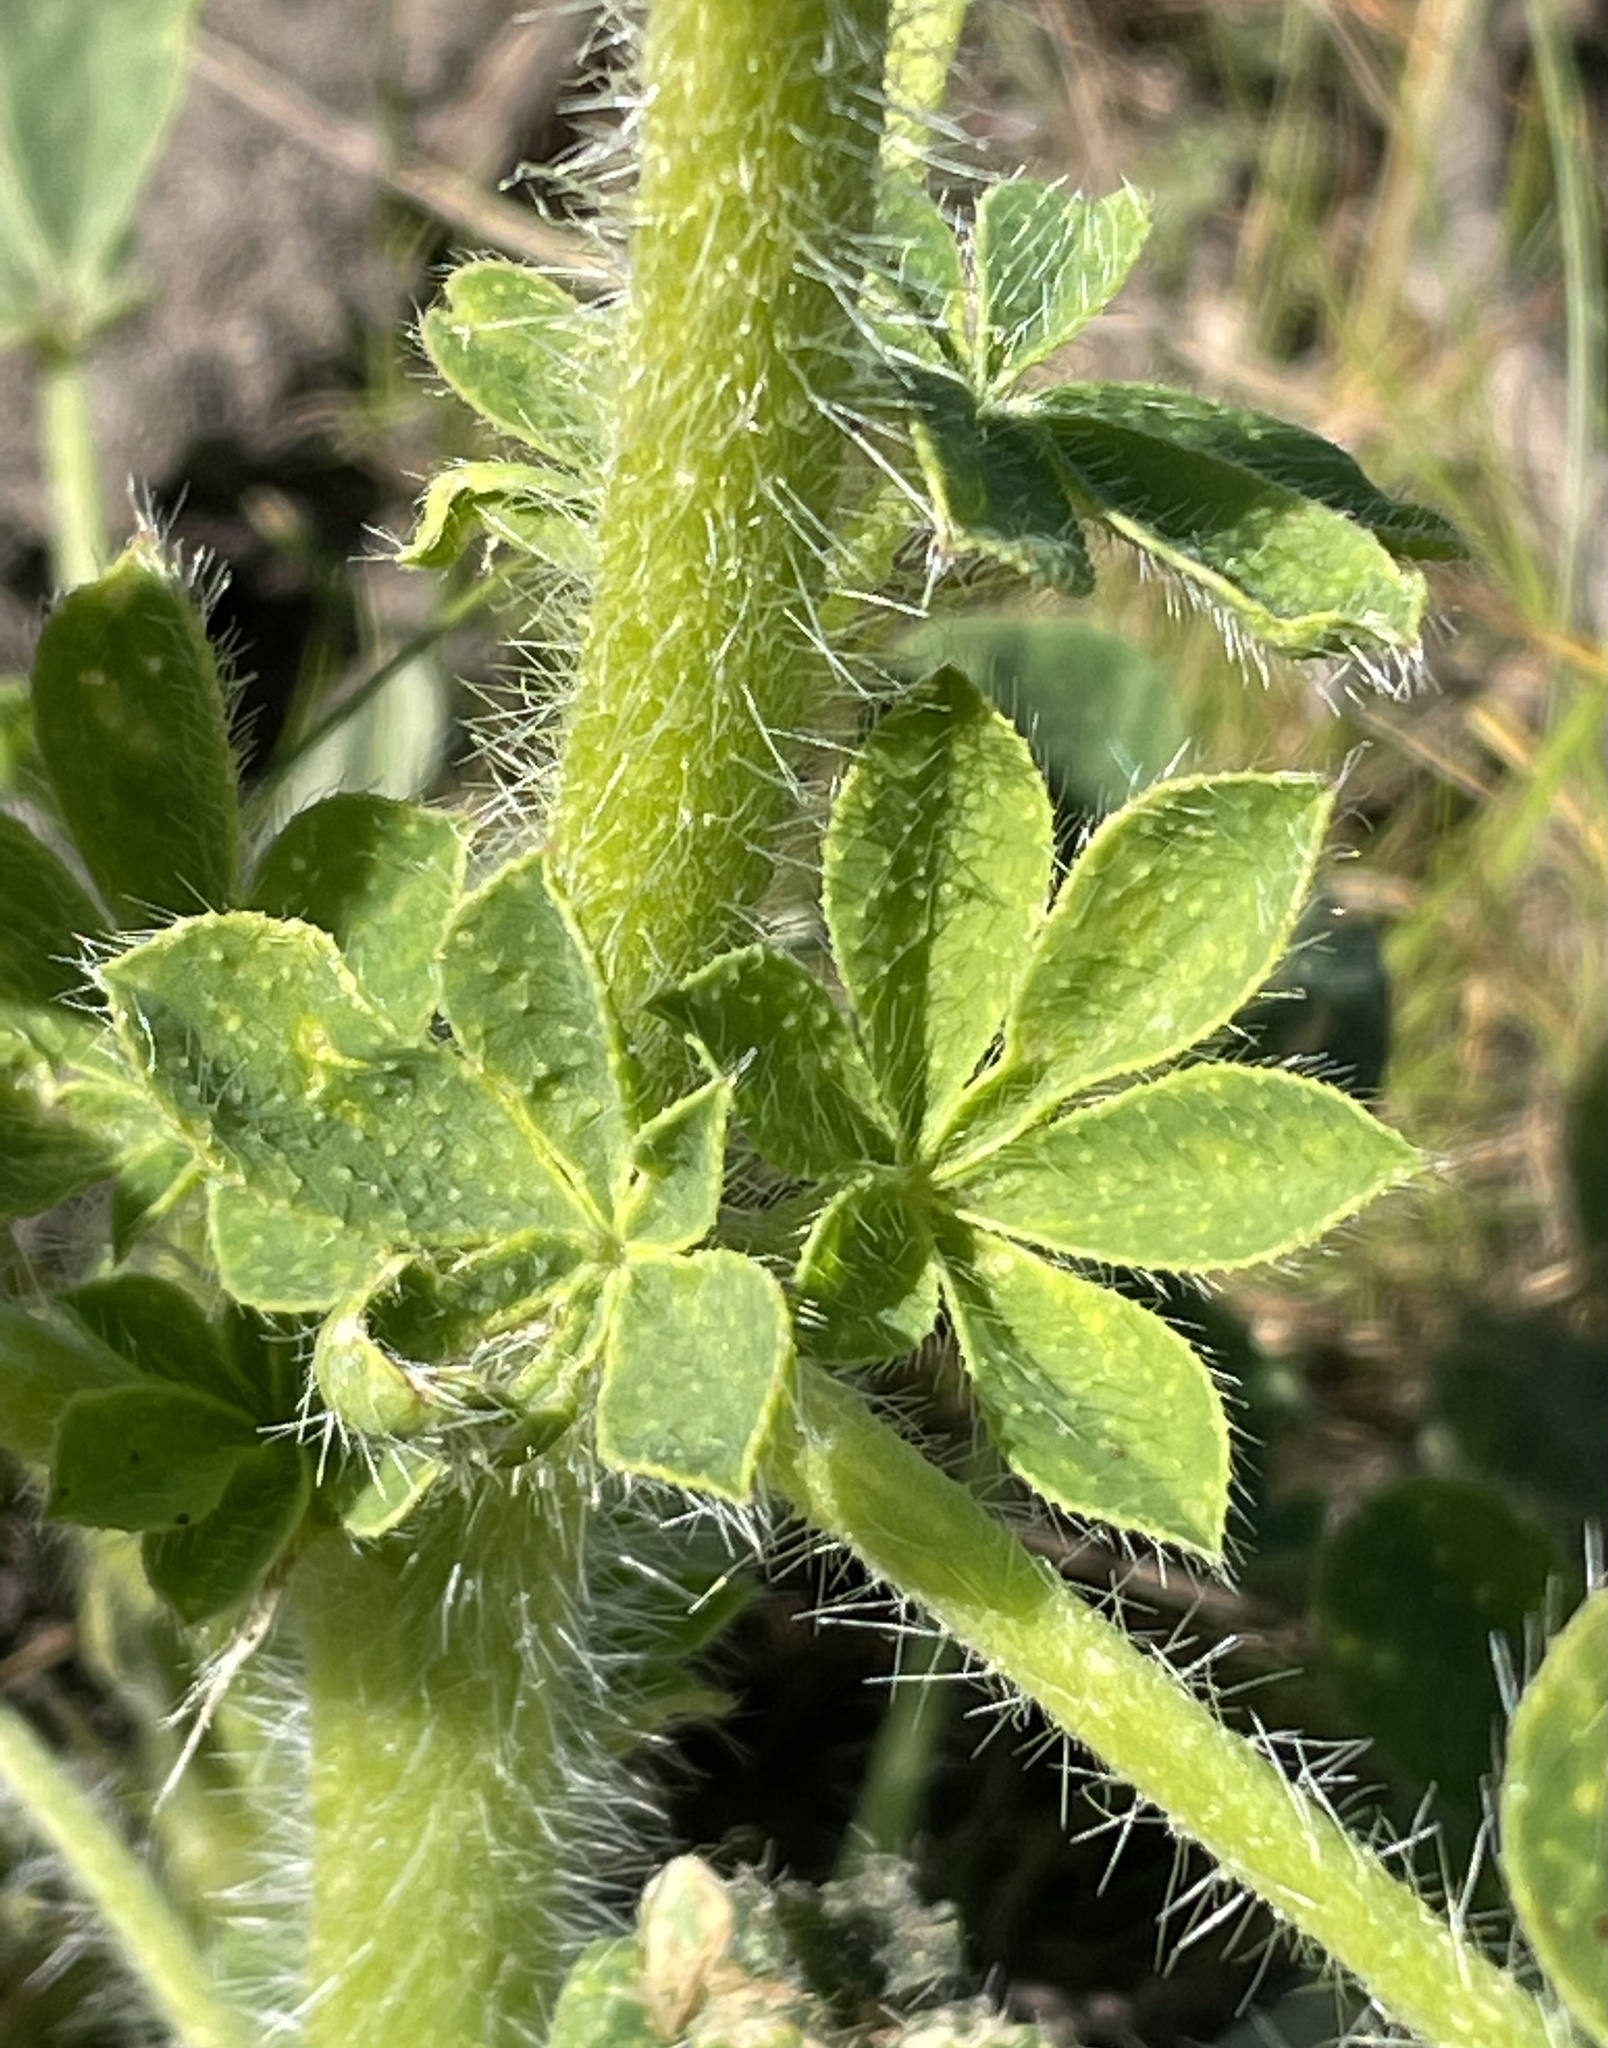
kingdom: Plantae
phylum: Tracheophyta
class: Magnoliopsida
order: Fabales
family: Fabaceae
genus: Lupinus
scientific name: Lupinus hirsutissimus
